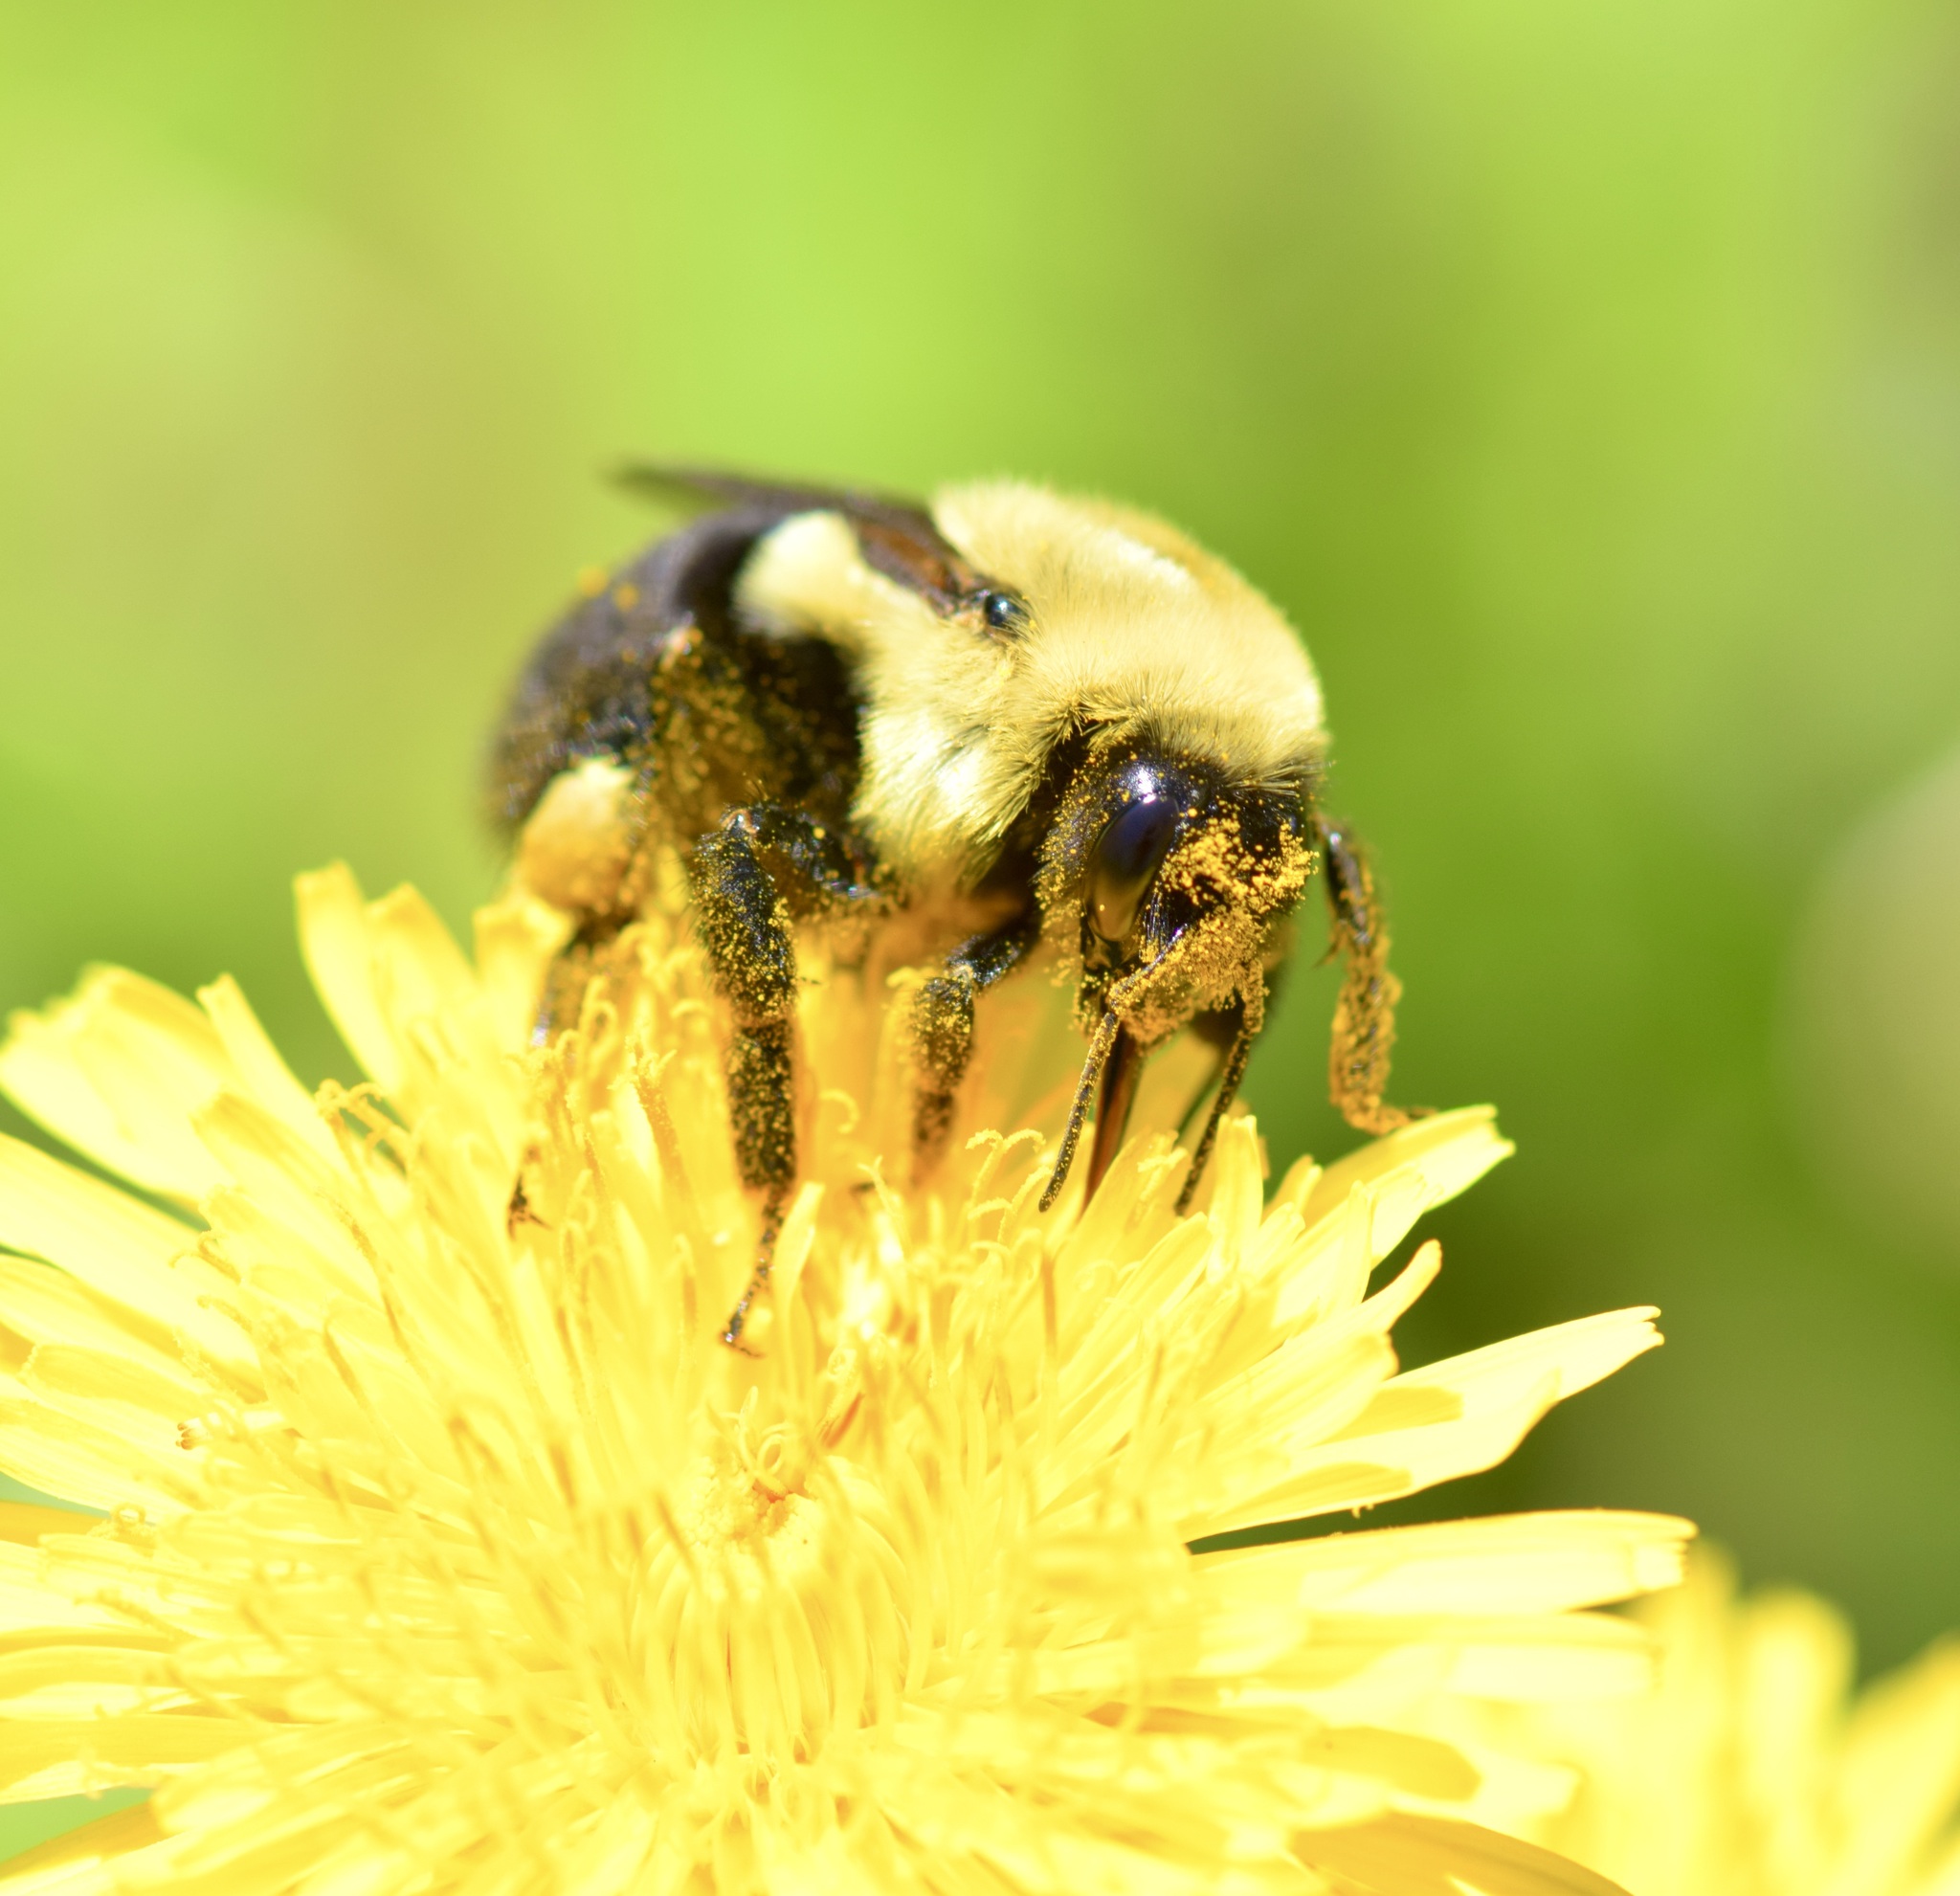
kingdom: Animalia
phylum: Arthropoda
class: Insecta
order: Hymenoptera
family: Apidae
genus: Bombus
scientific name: Bombus impatiens
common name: Common eastern bumble bee
